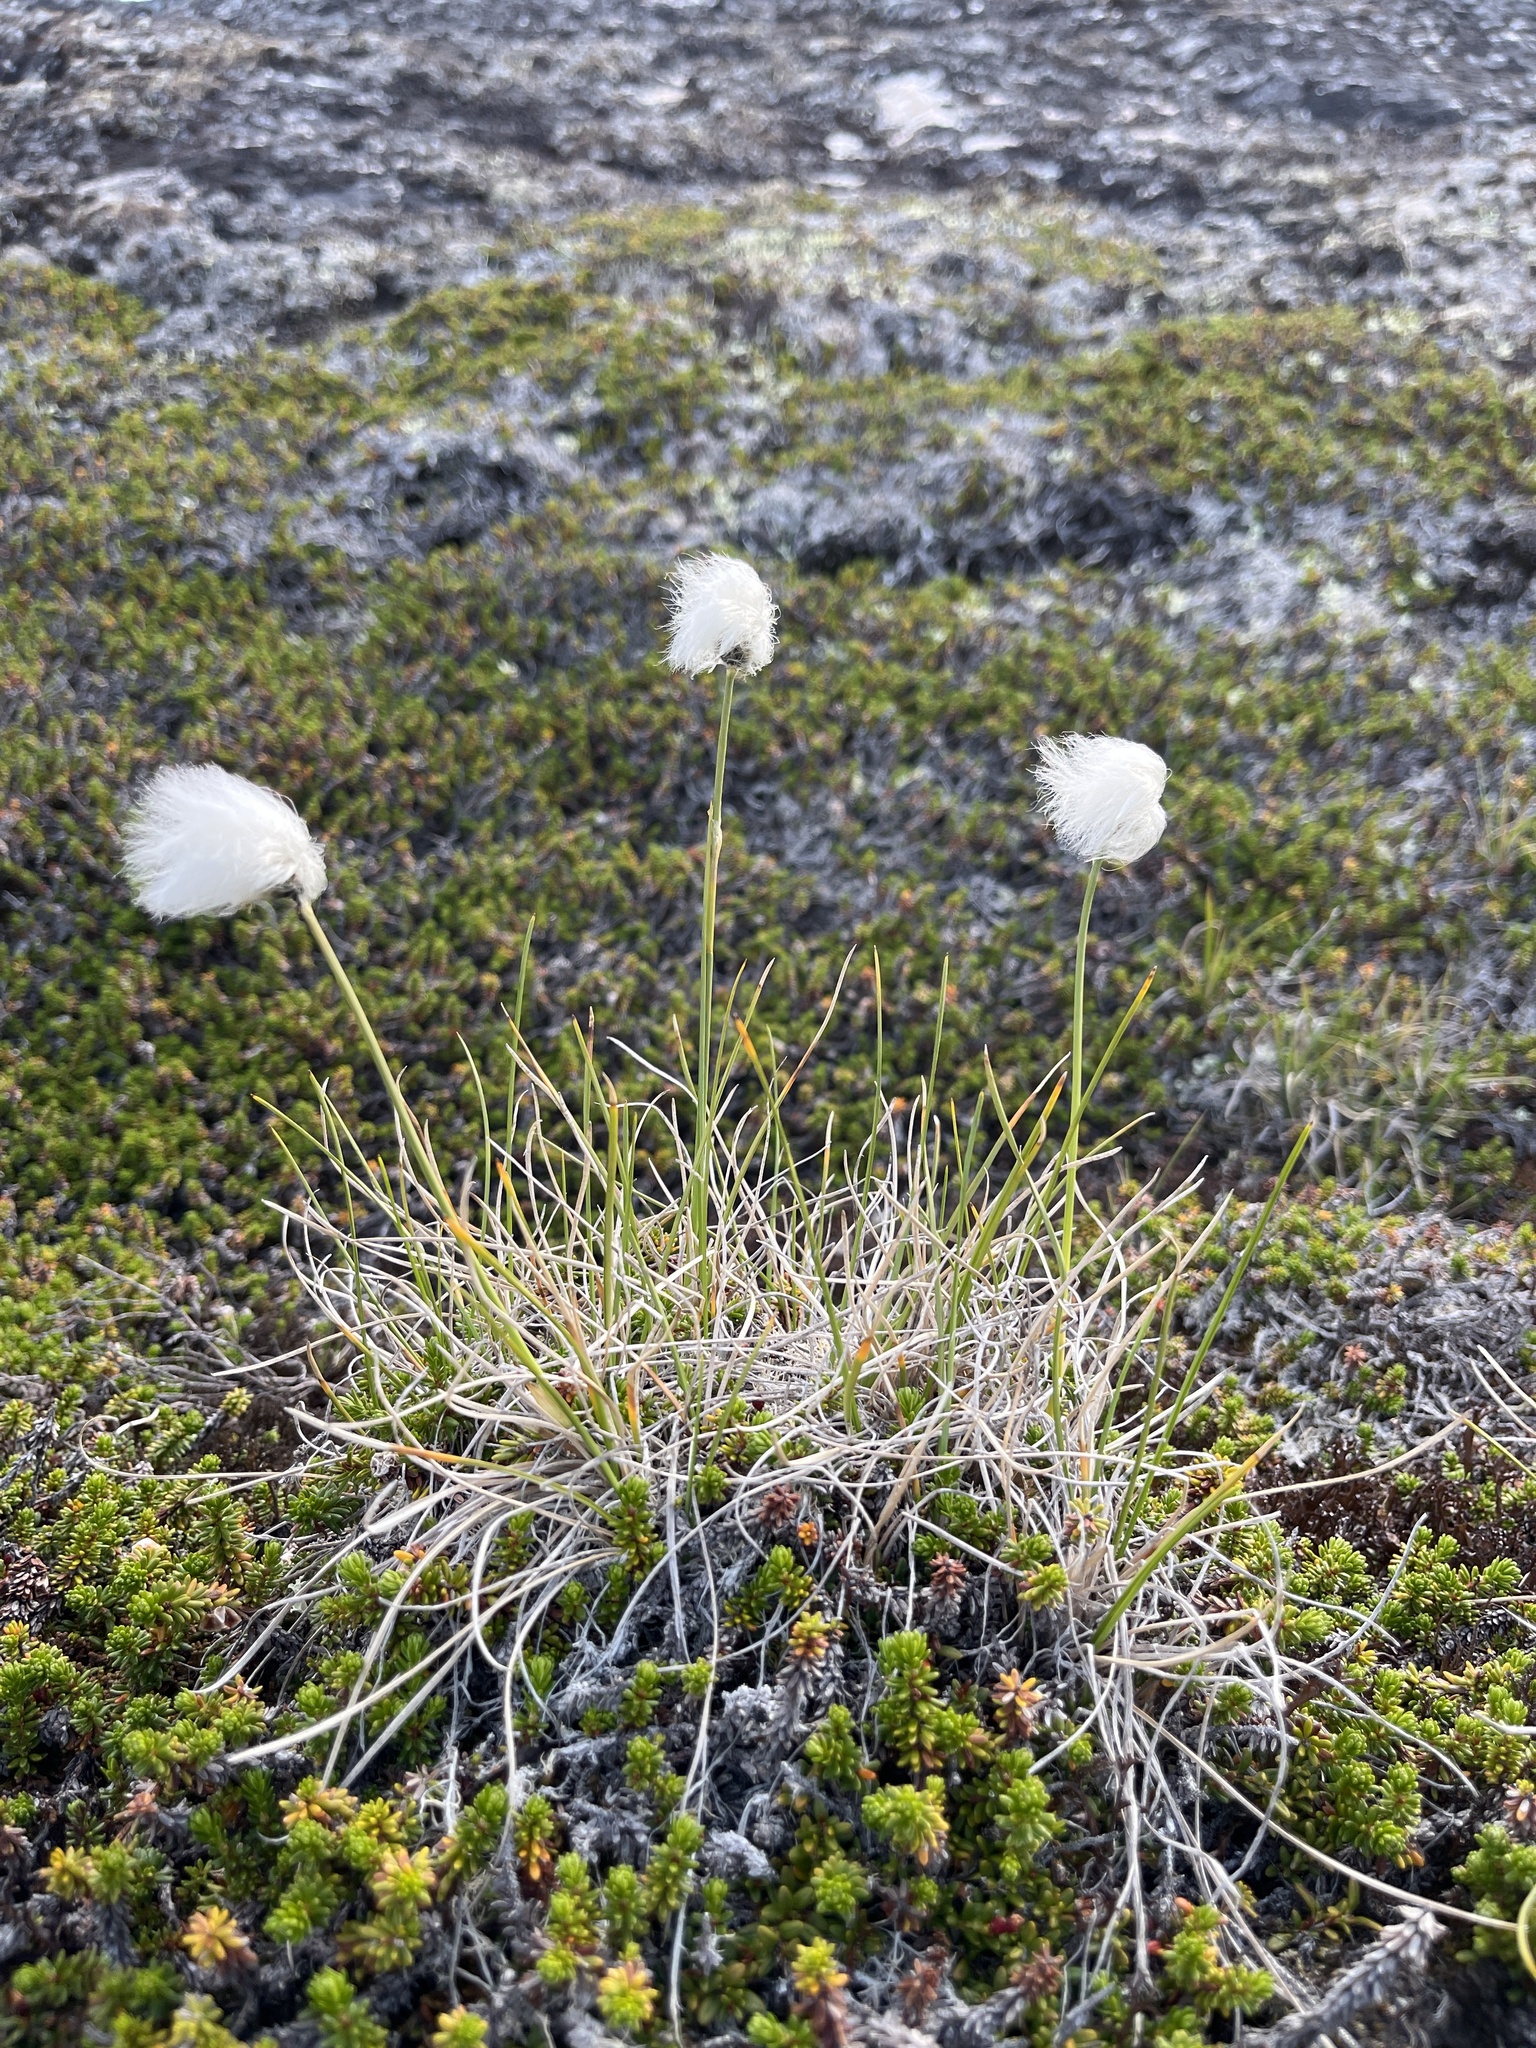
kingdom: Plantae
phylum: Tracheophyta
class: Liliopsida
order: Poales
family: Cyperaceae
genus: Eriophorum
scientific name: Eriophorum vaginatum
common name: Hare's-tail cottongrass
